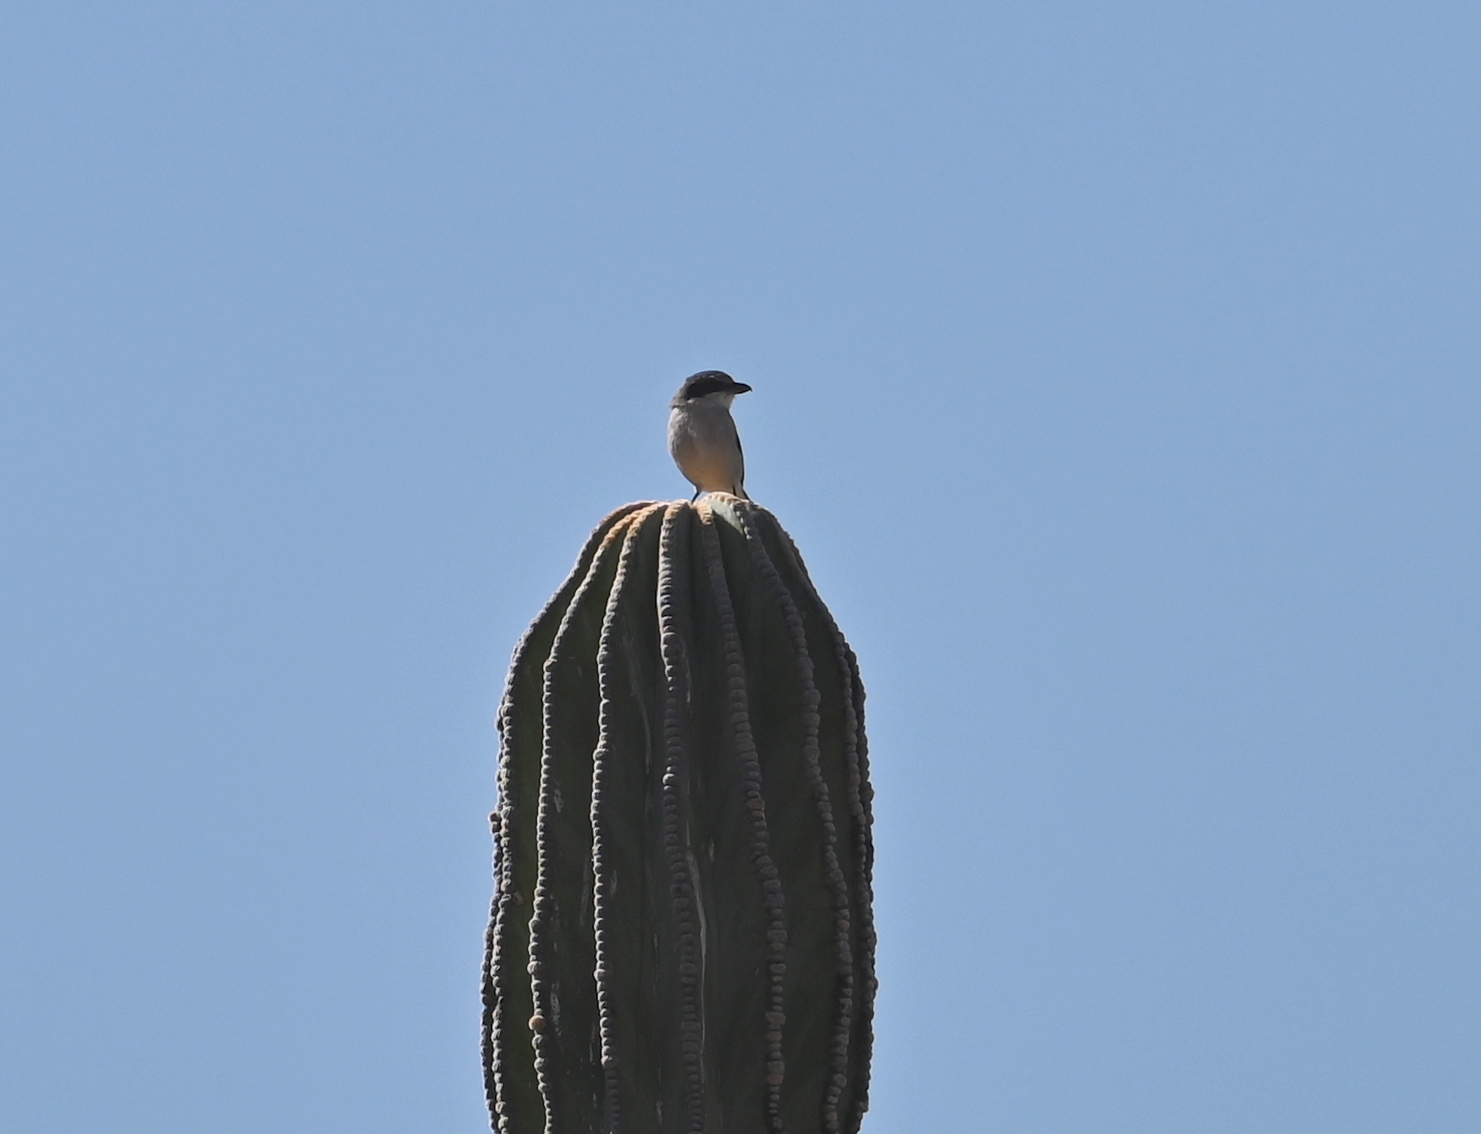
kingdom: Animalia
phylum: Chordata
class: Aves
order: Passeriformes
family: Laniidae
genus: Lanius
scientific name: Lanius ludovicianus
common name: Loggerhead shrike
